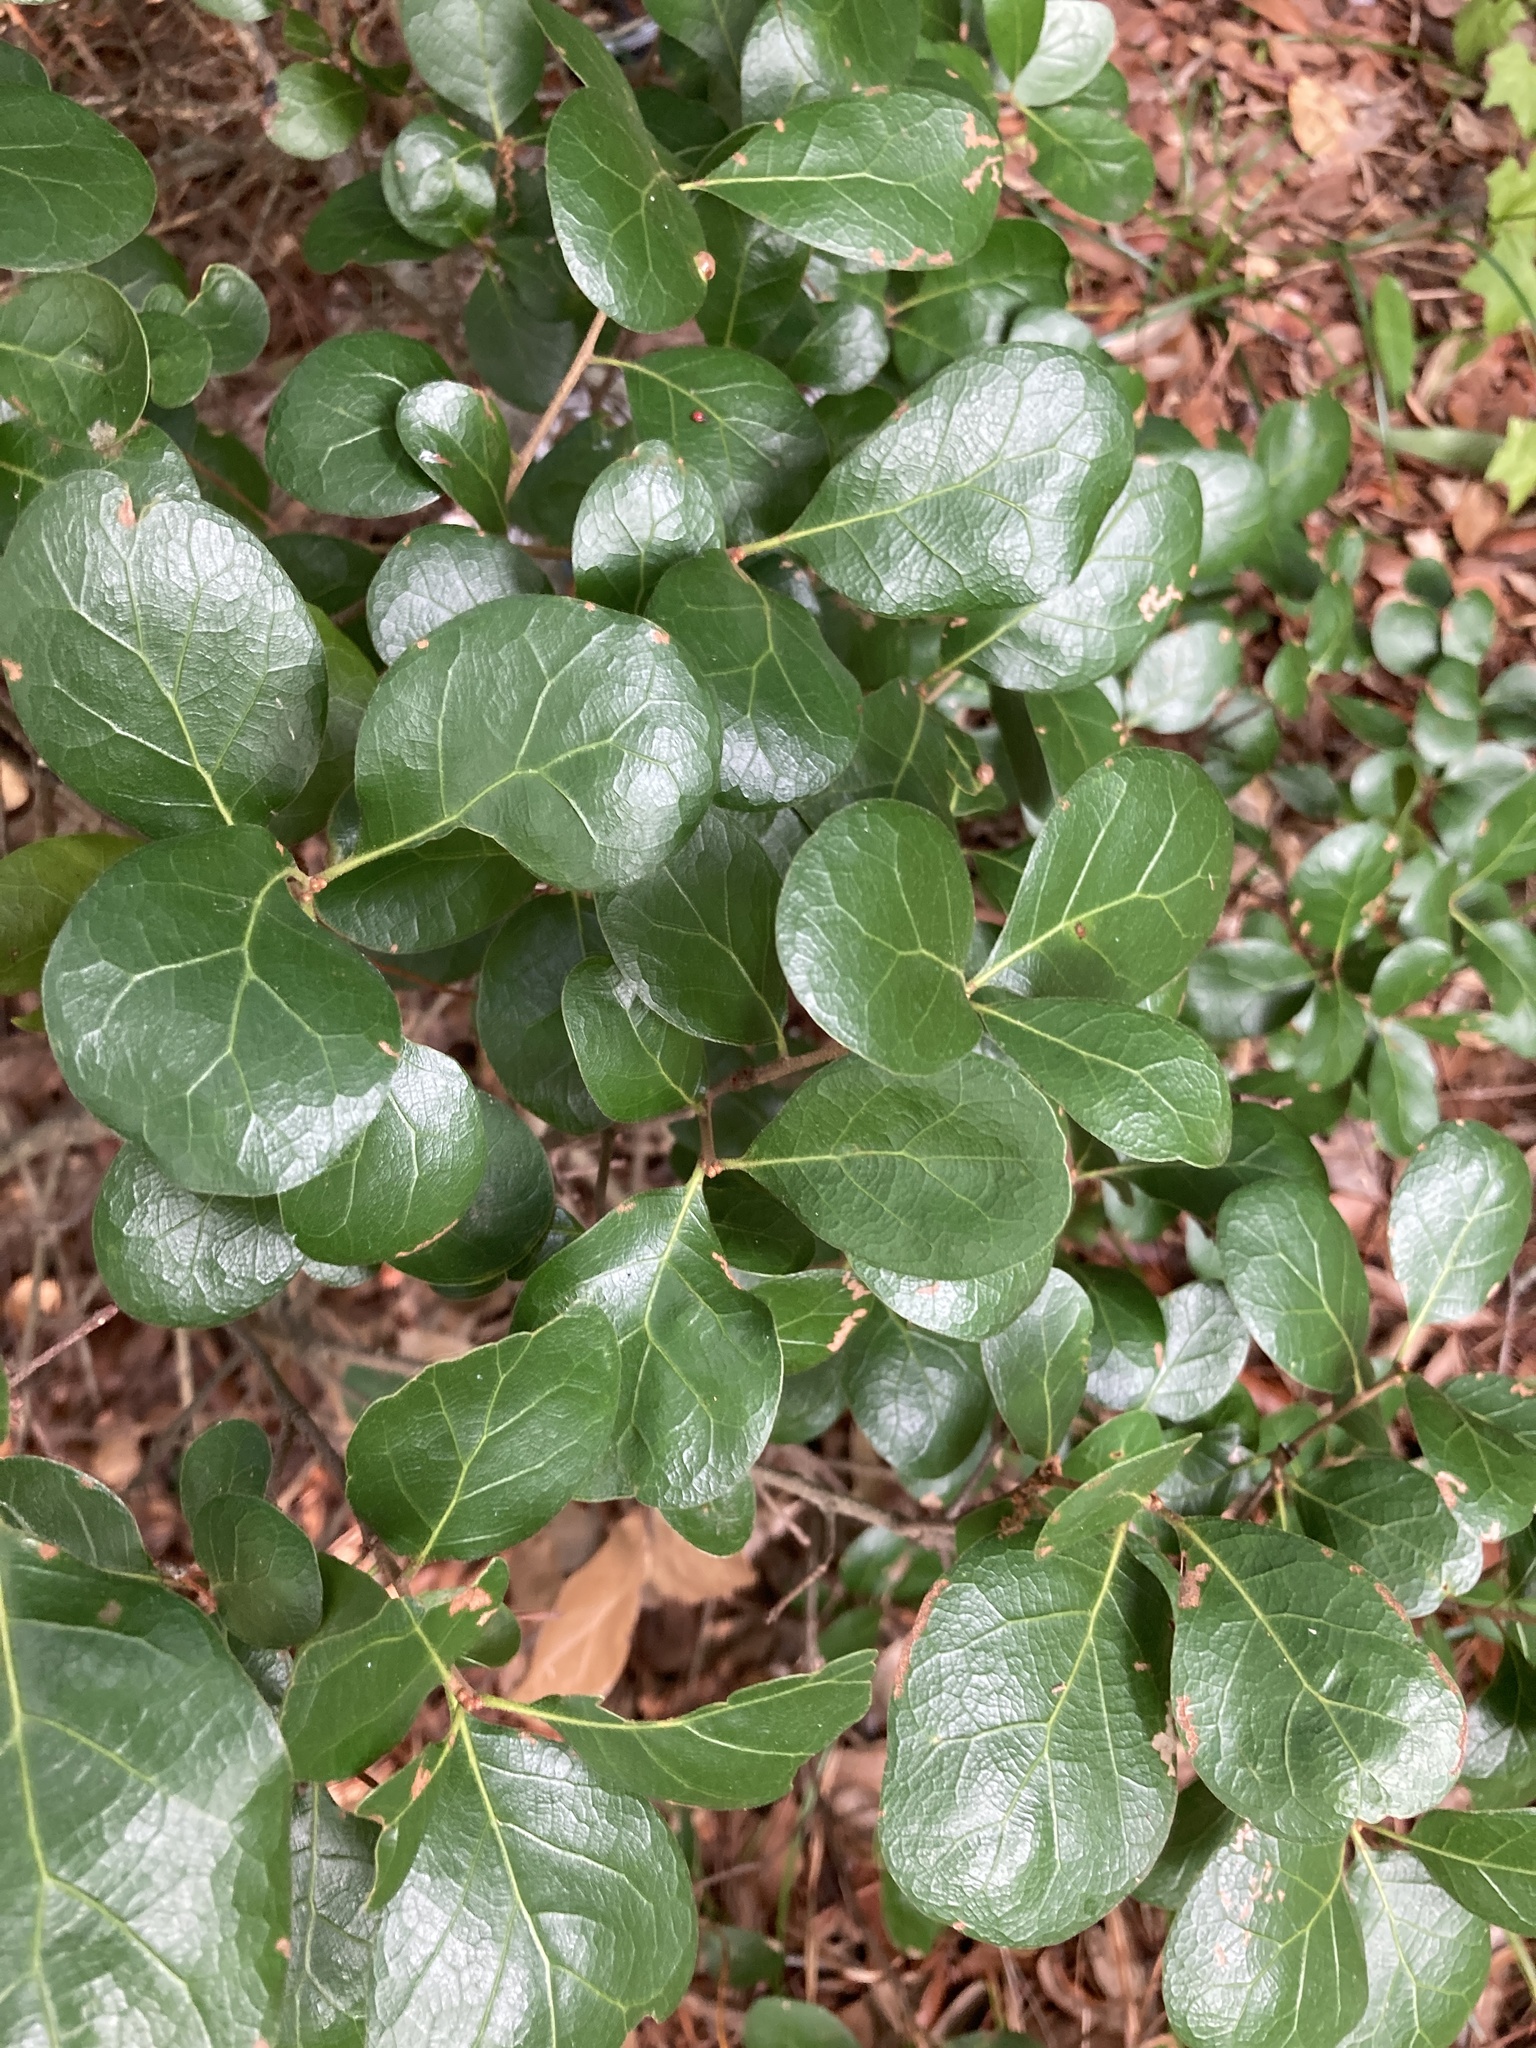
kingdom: Plantae
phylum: Tracheophyta
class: Magnoliopsida
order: Fagales
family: Fagaceae
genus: Quercus
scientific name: Quercus myrtifolia
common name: Myrtle oak
